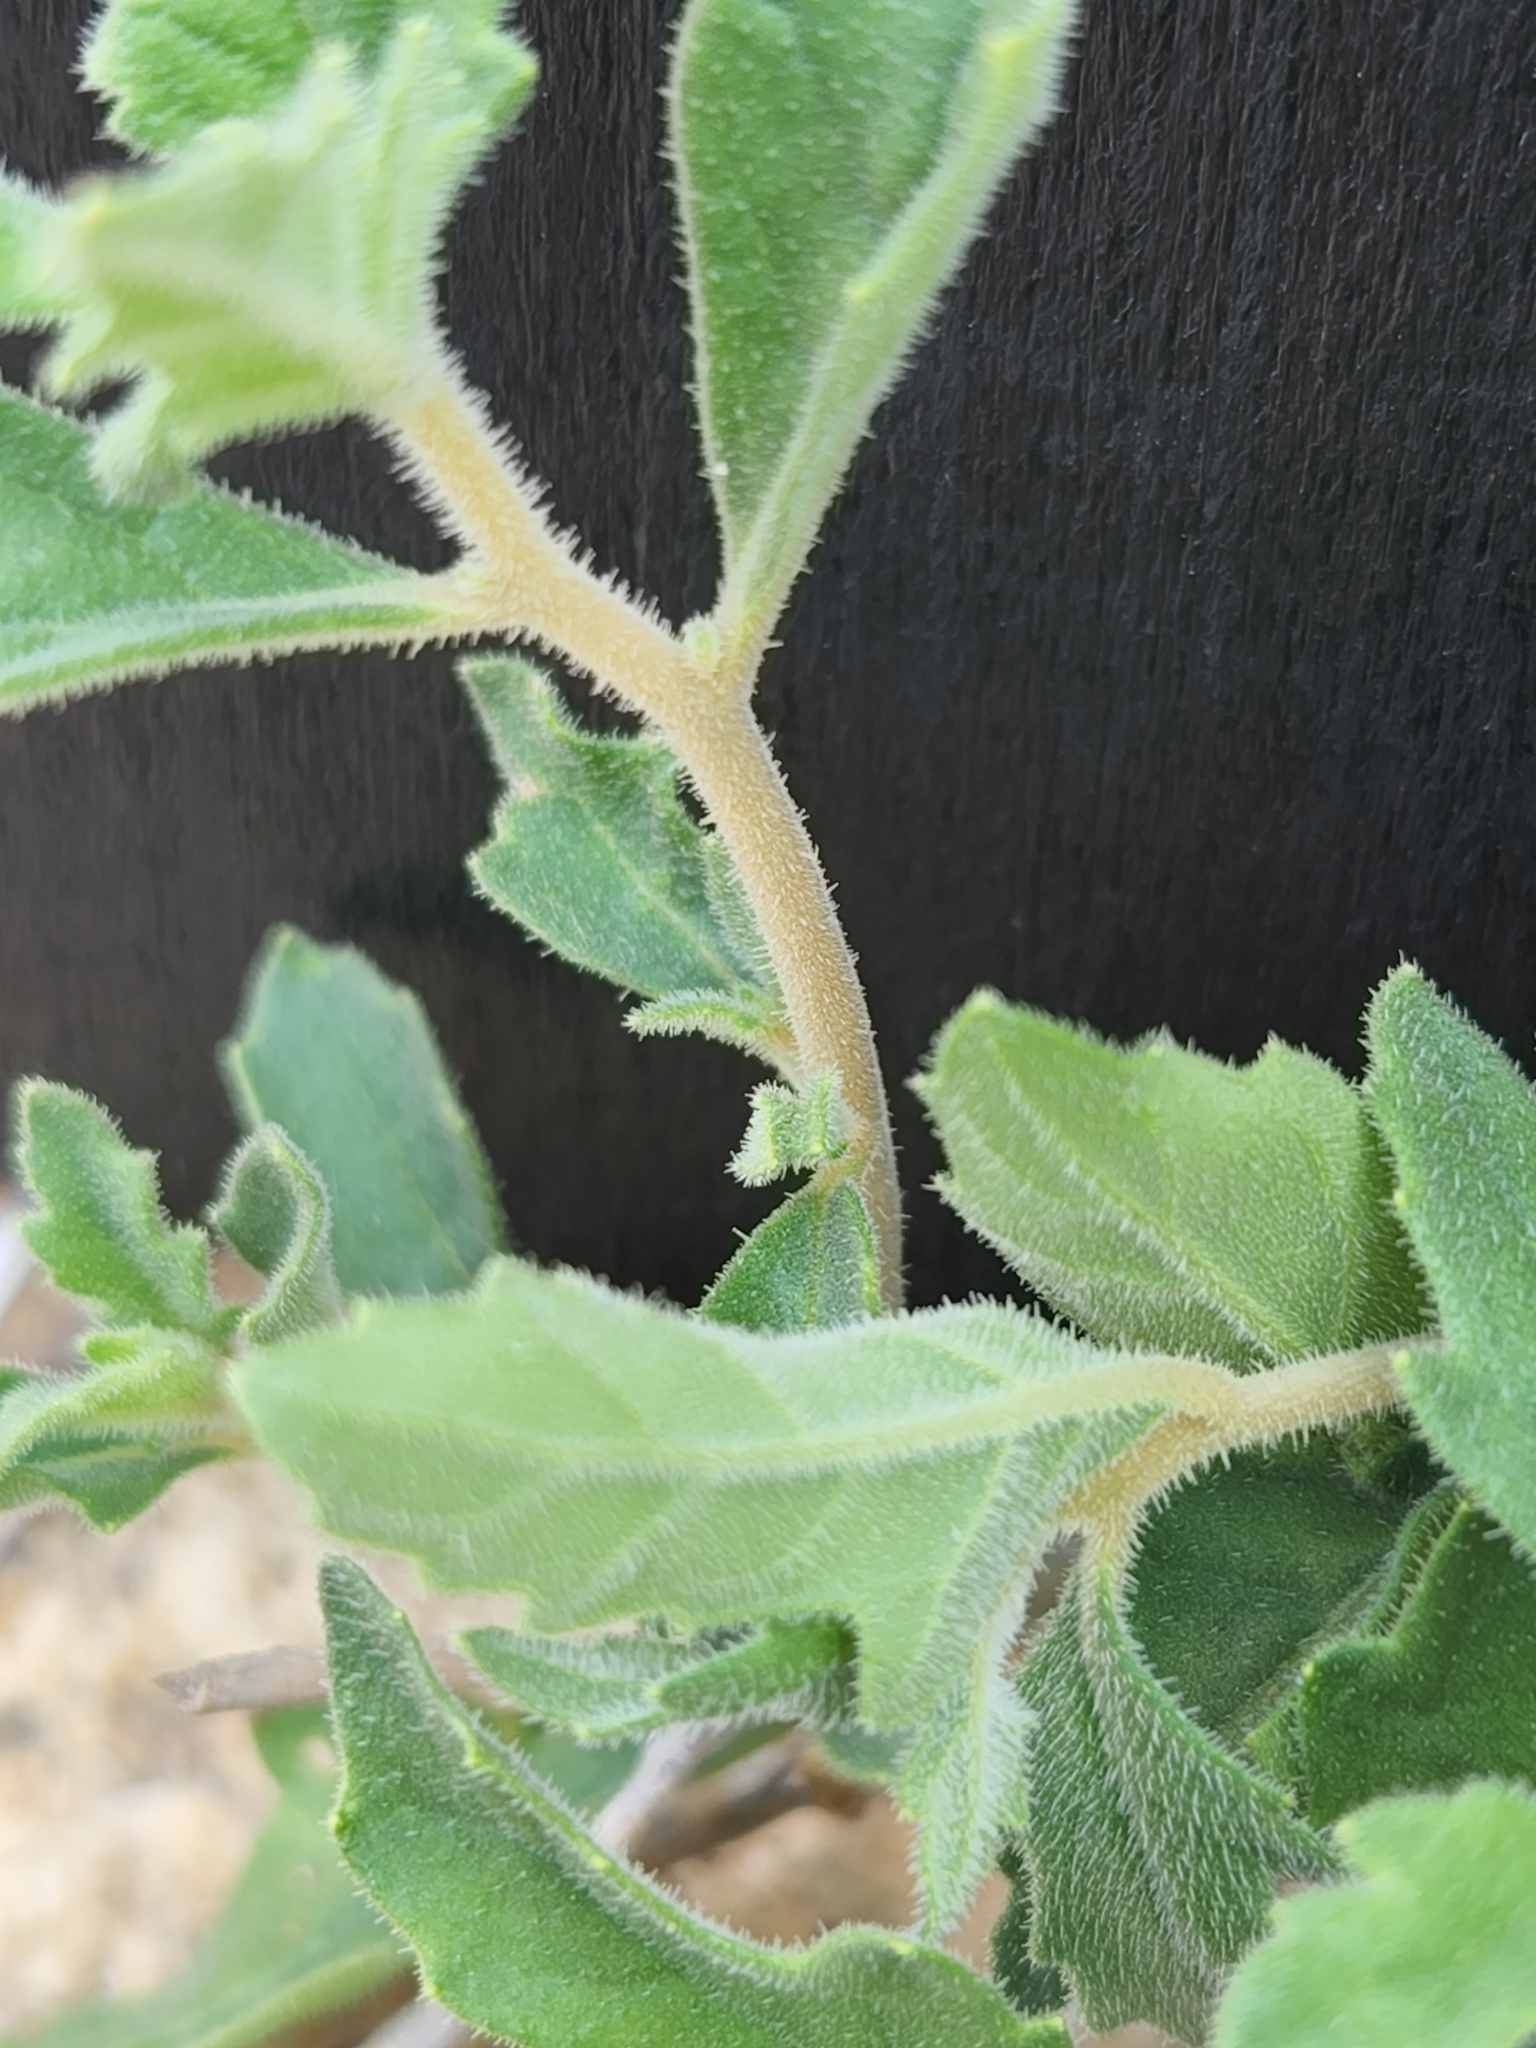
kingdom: Plantae
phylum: Tracheophyta
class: Magnoliopsida
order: Cornales
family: Loasaceae
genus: Mentzelia
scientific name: Mentzelia oligosperma
